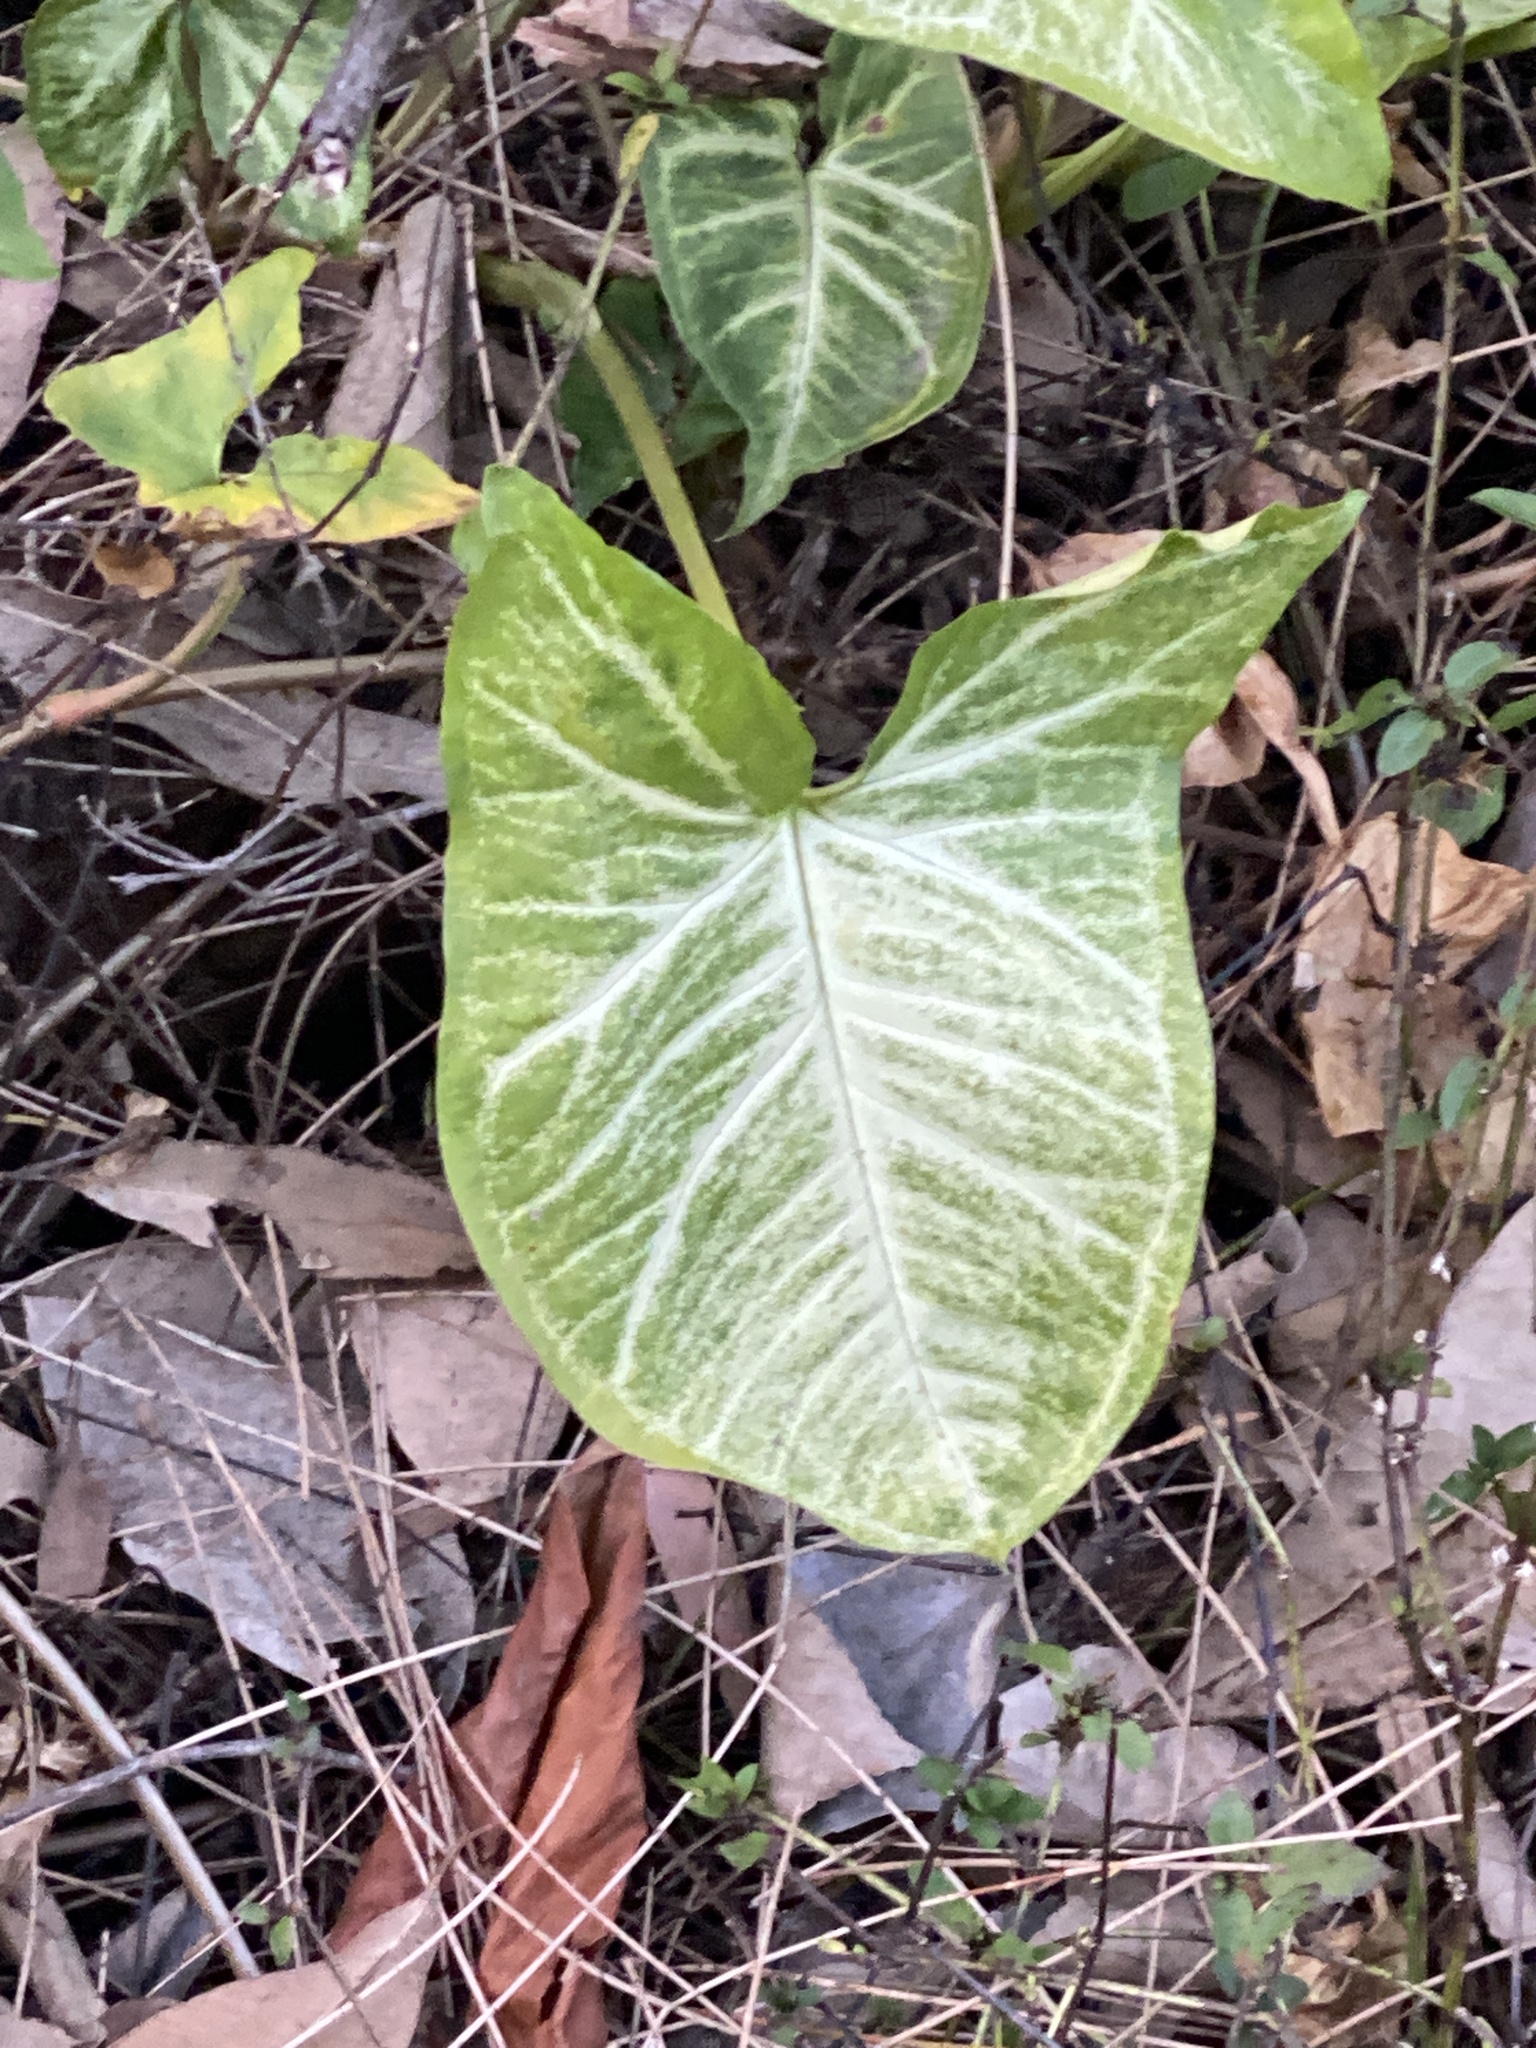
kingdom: Plantae
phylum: Tracheophyta
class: Liliopsida
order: Alismatales
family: Araceae
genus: Syngonium
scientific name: Syngonium podophyllum
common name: American evergreen
